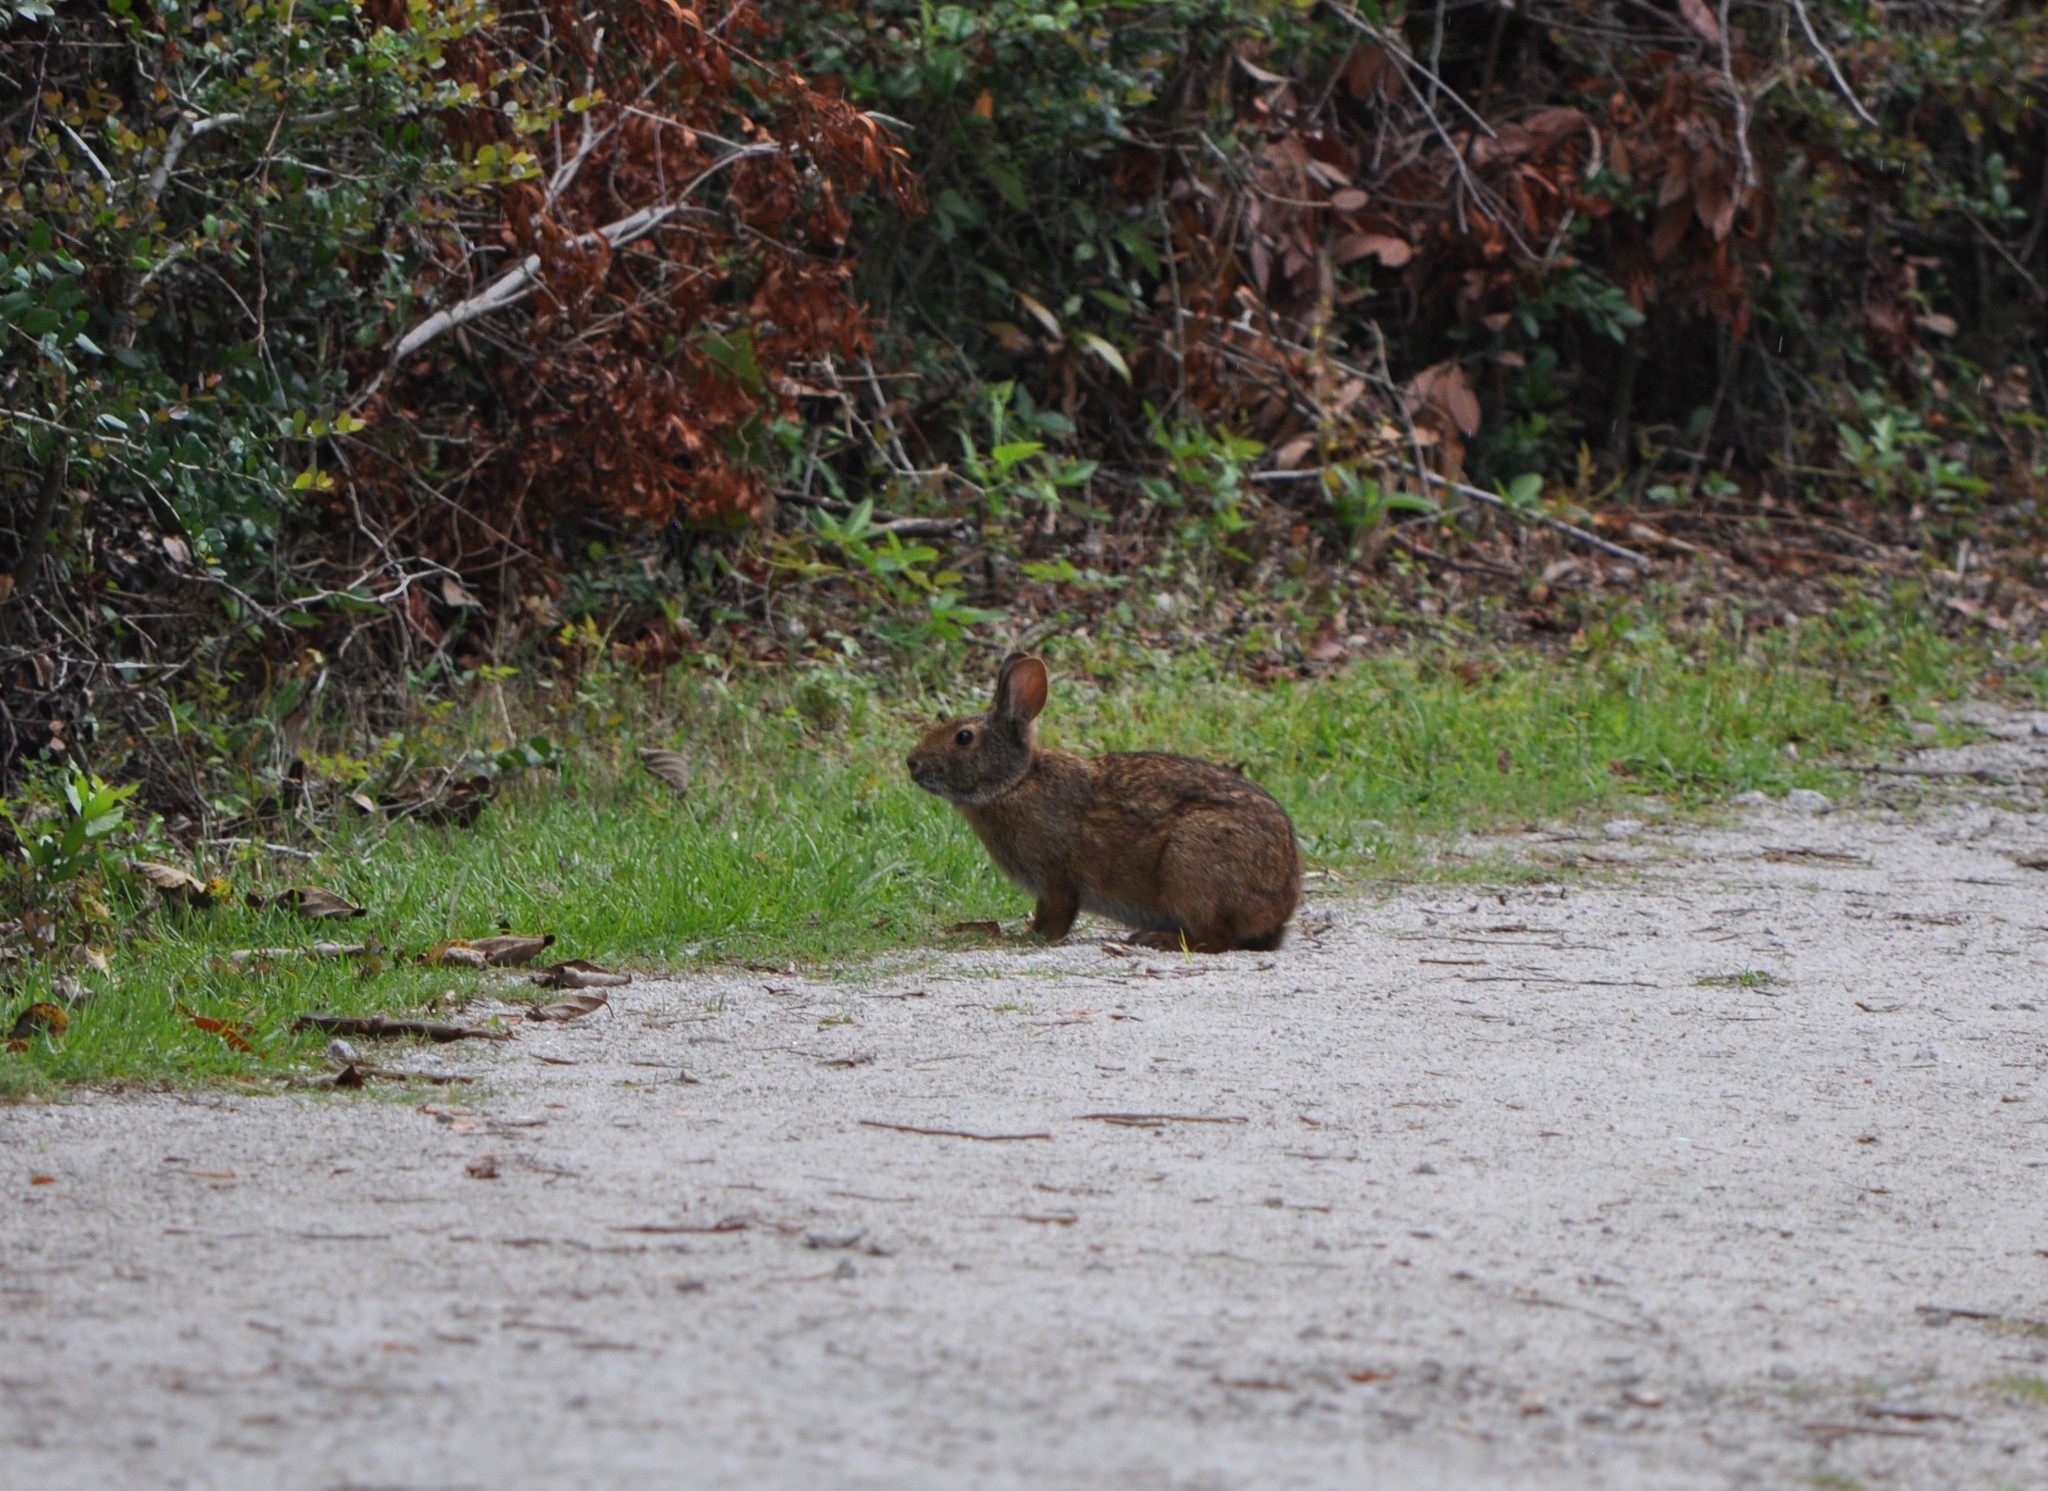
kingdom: Animalia
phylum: Chordata
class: Mammalia
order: Lagomorpha
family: Leporidae
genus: Sylvilagus
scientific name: Sylvilagus palustris
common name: Marsh rabbit
